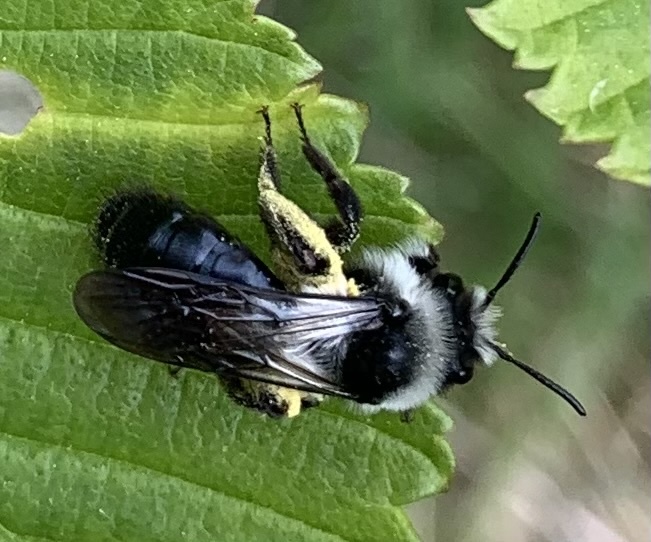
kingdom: Animalia
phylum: Arthropoda
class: Insecta
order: Hymenoptera
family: Andrenidae
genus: Andrena
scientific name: Andrena cineraria
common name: Ashy mining bee
